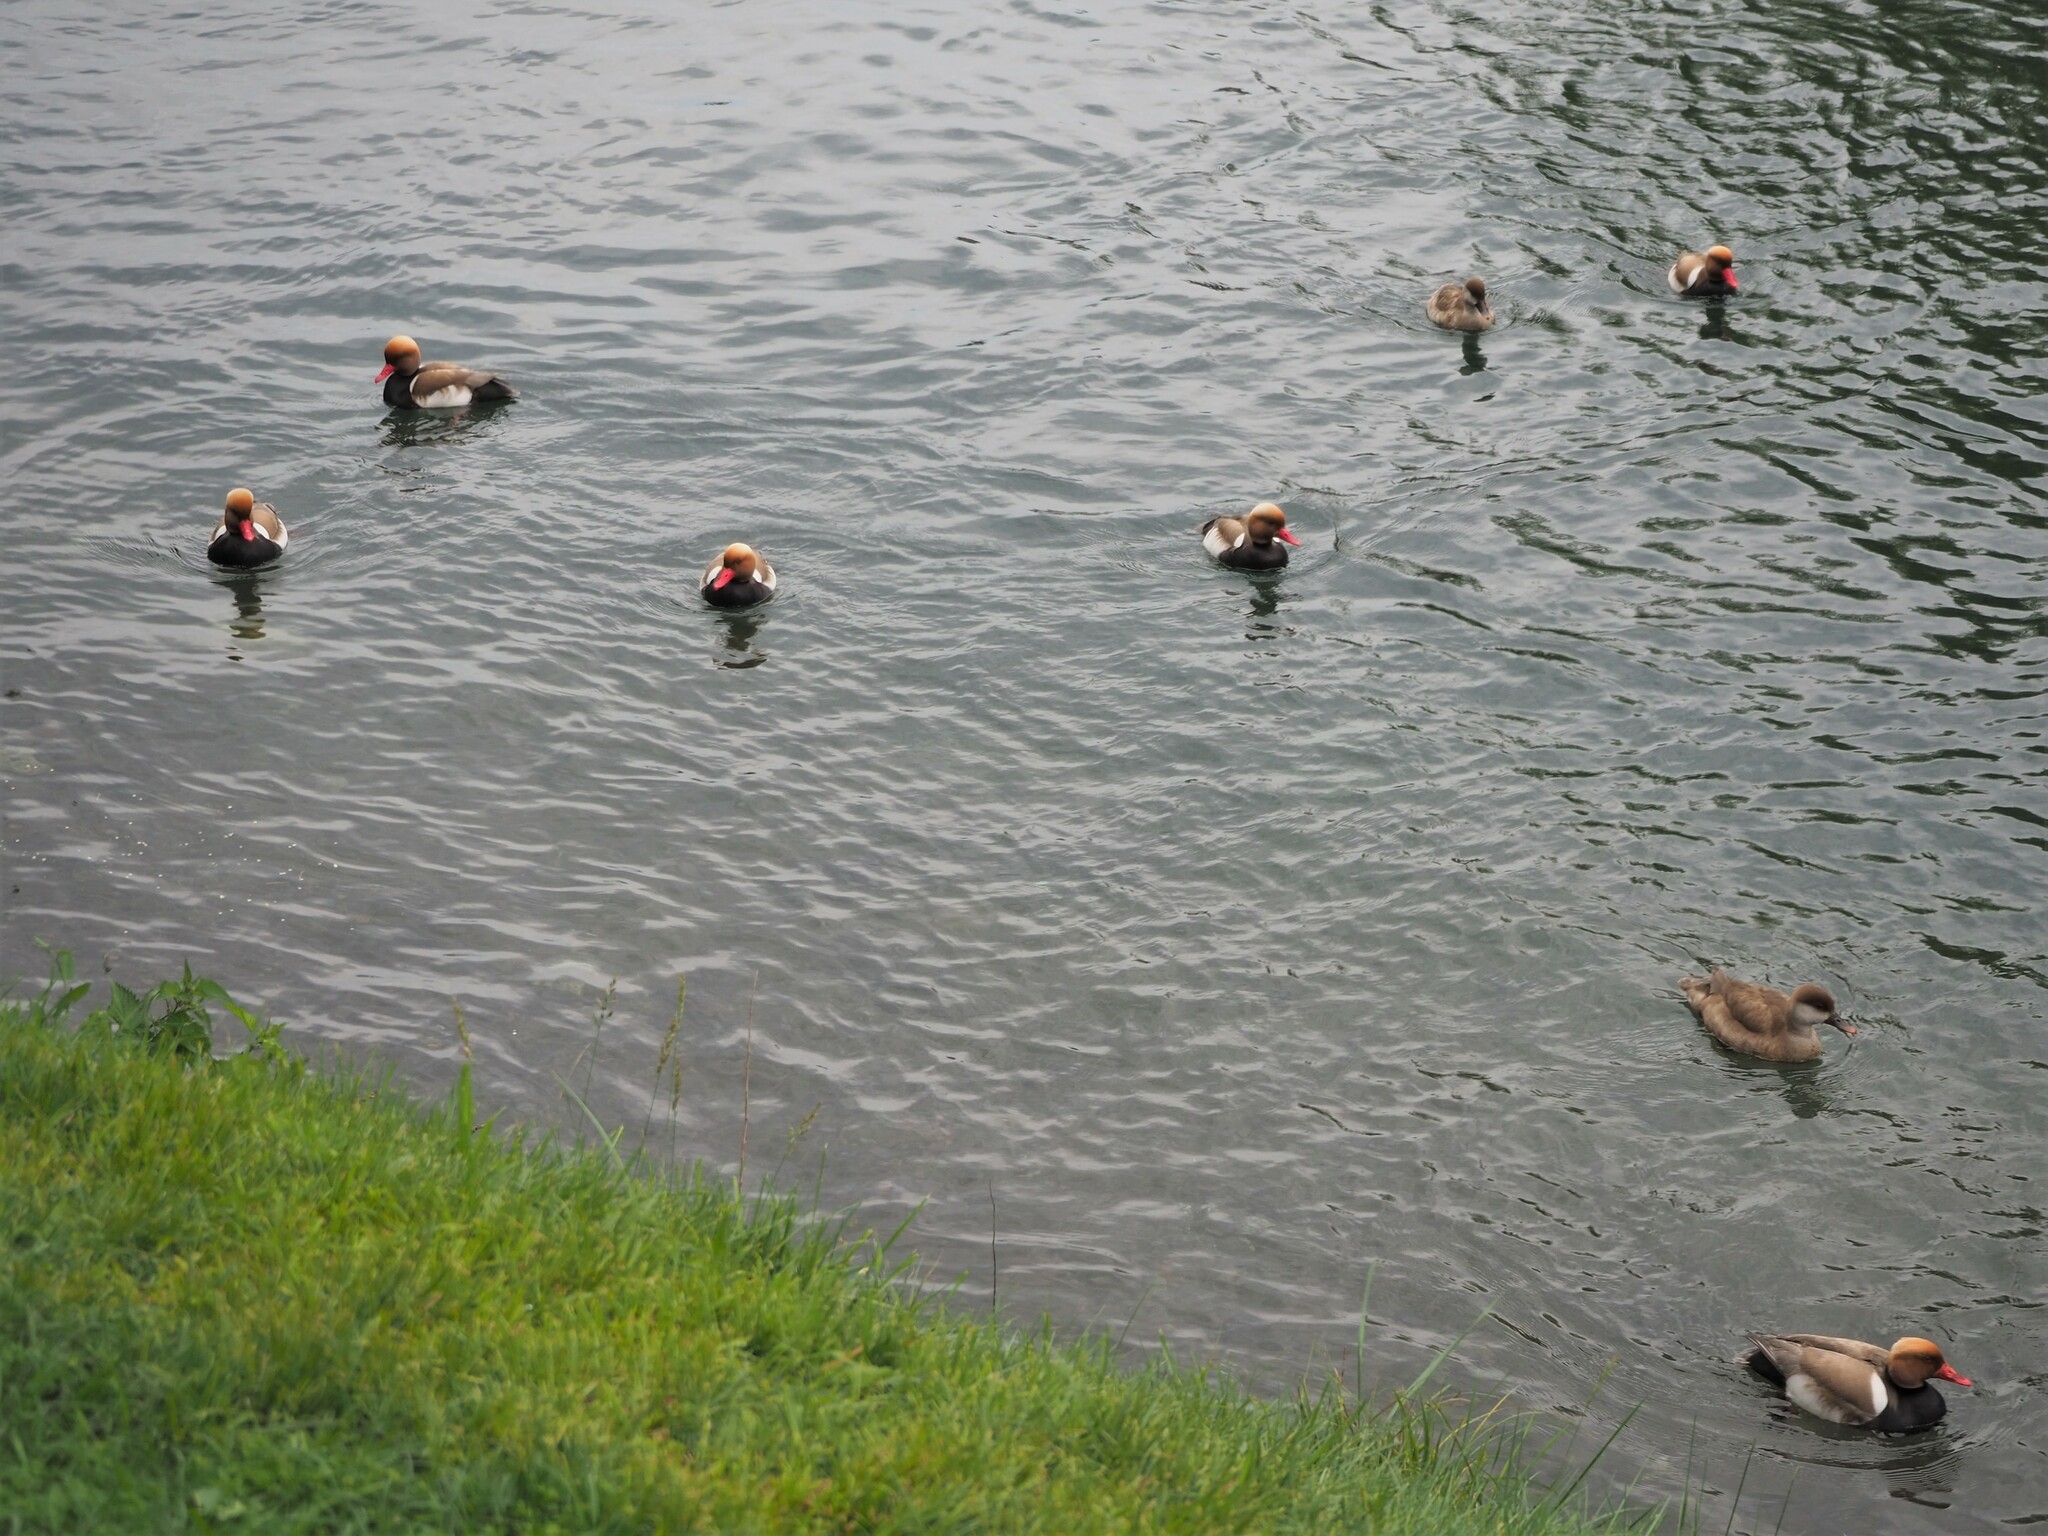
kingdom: Animalia
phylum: Chordata
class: Aves
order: Anseriformes
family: Anatidae
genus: Netta
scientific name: Netta rufina
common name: Red-crested pochard
